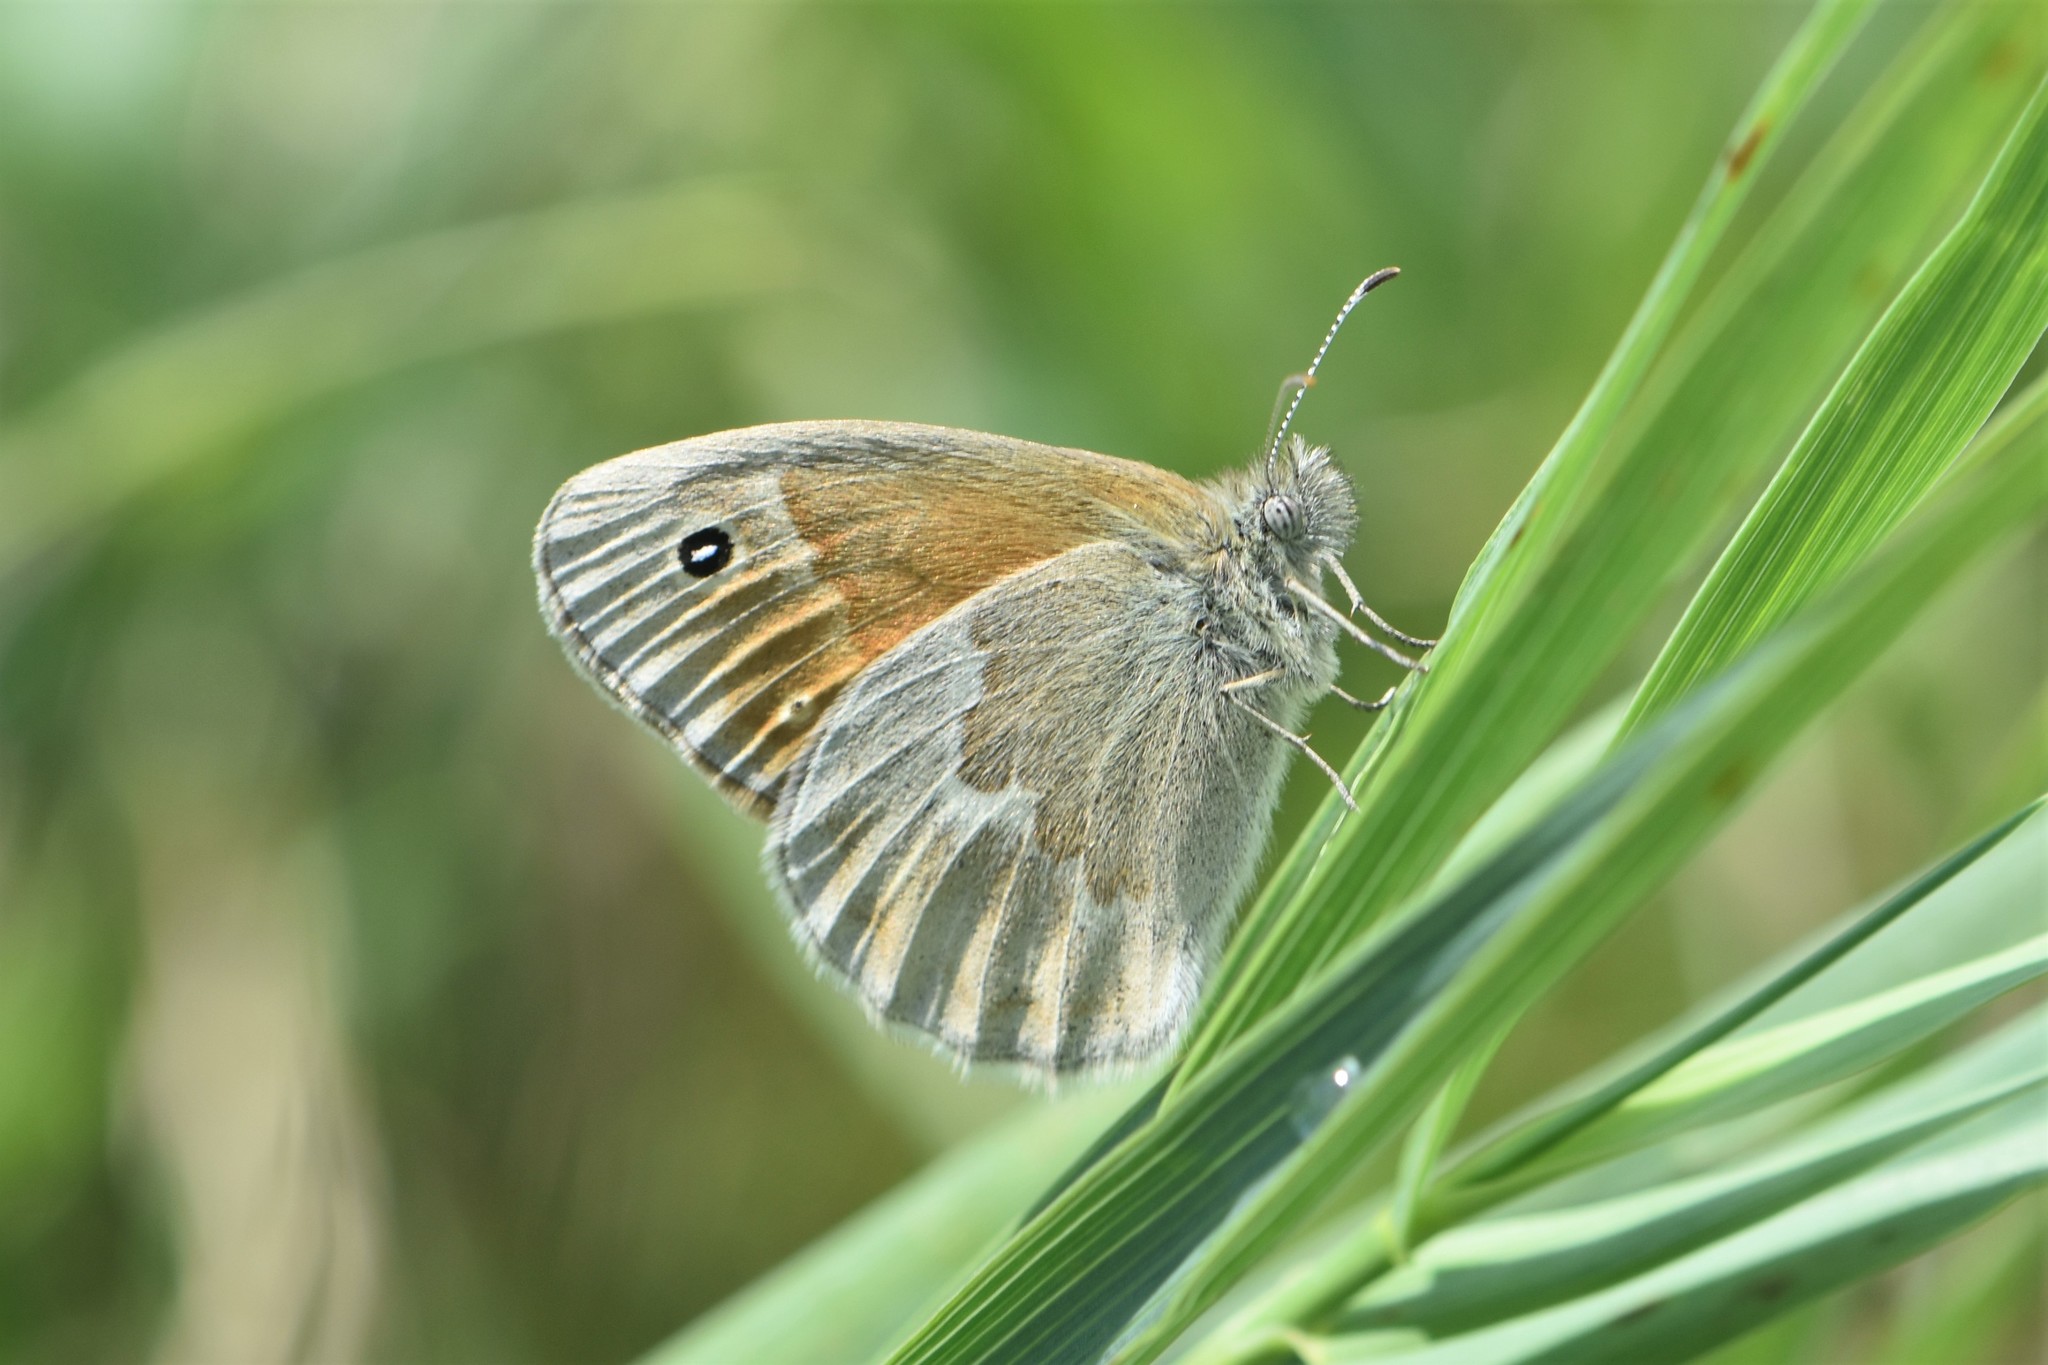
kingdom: Animalia
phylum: Arthropoda
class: Insecta
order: Lepidoptera
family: Nymphalidae
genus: Coenonympha
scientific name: Coenonympha california
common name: Common ringlet
